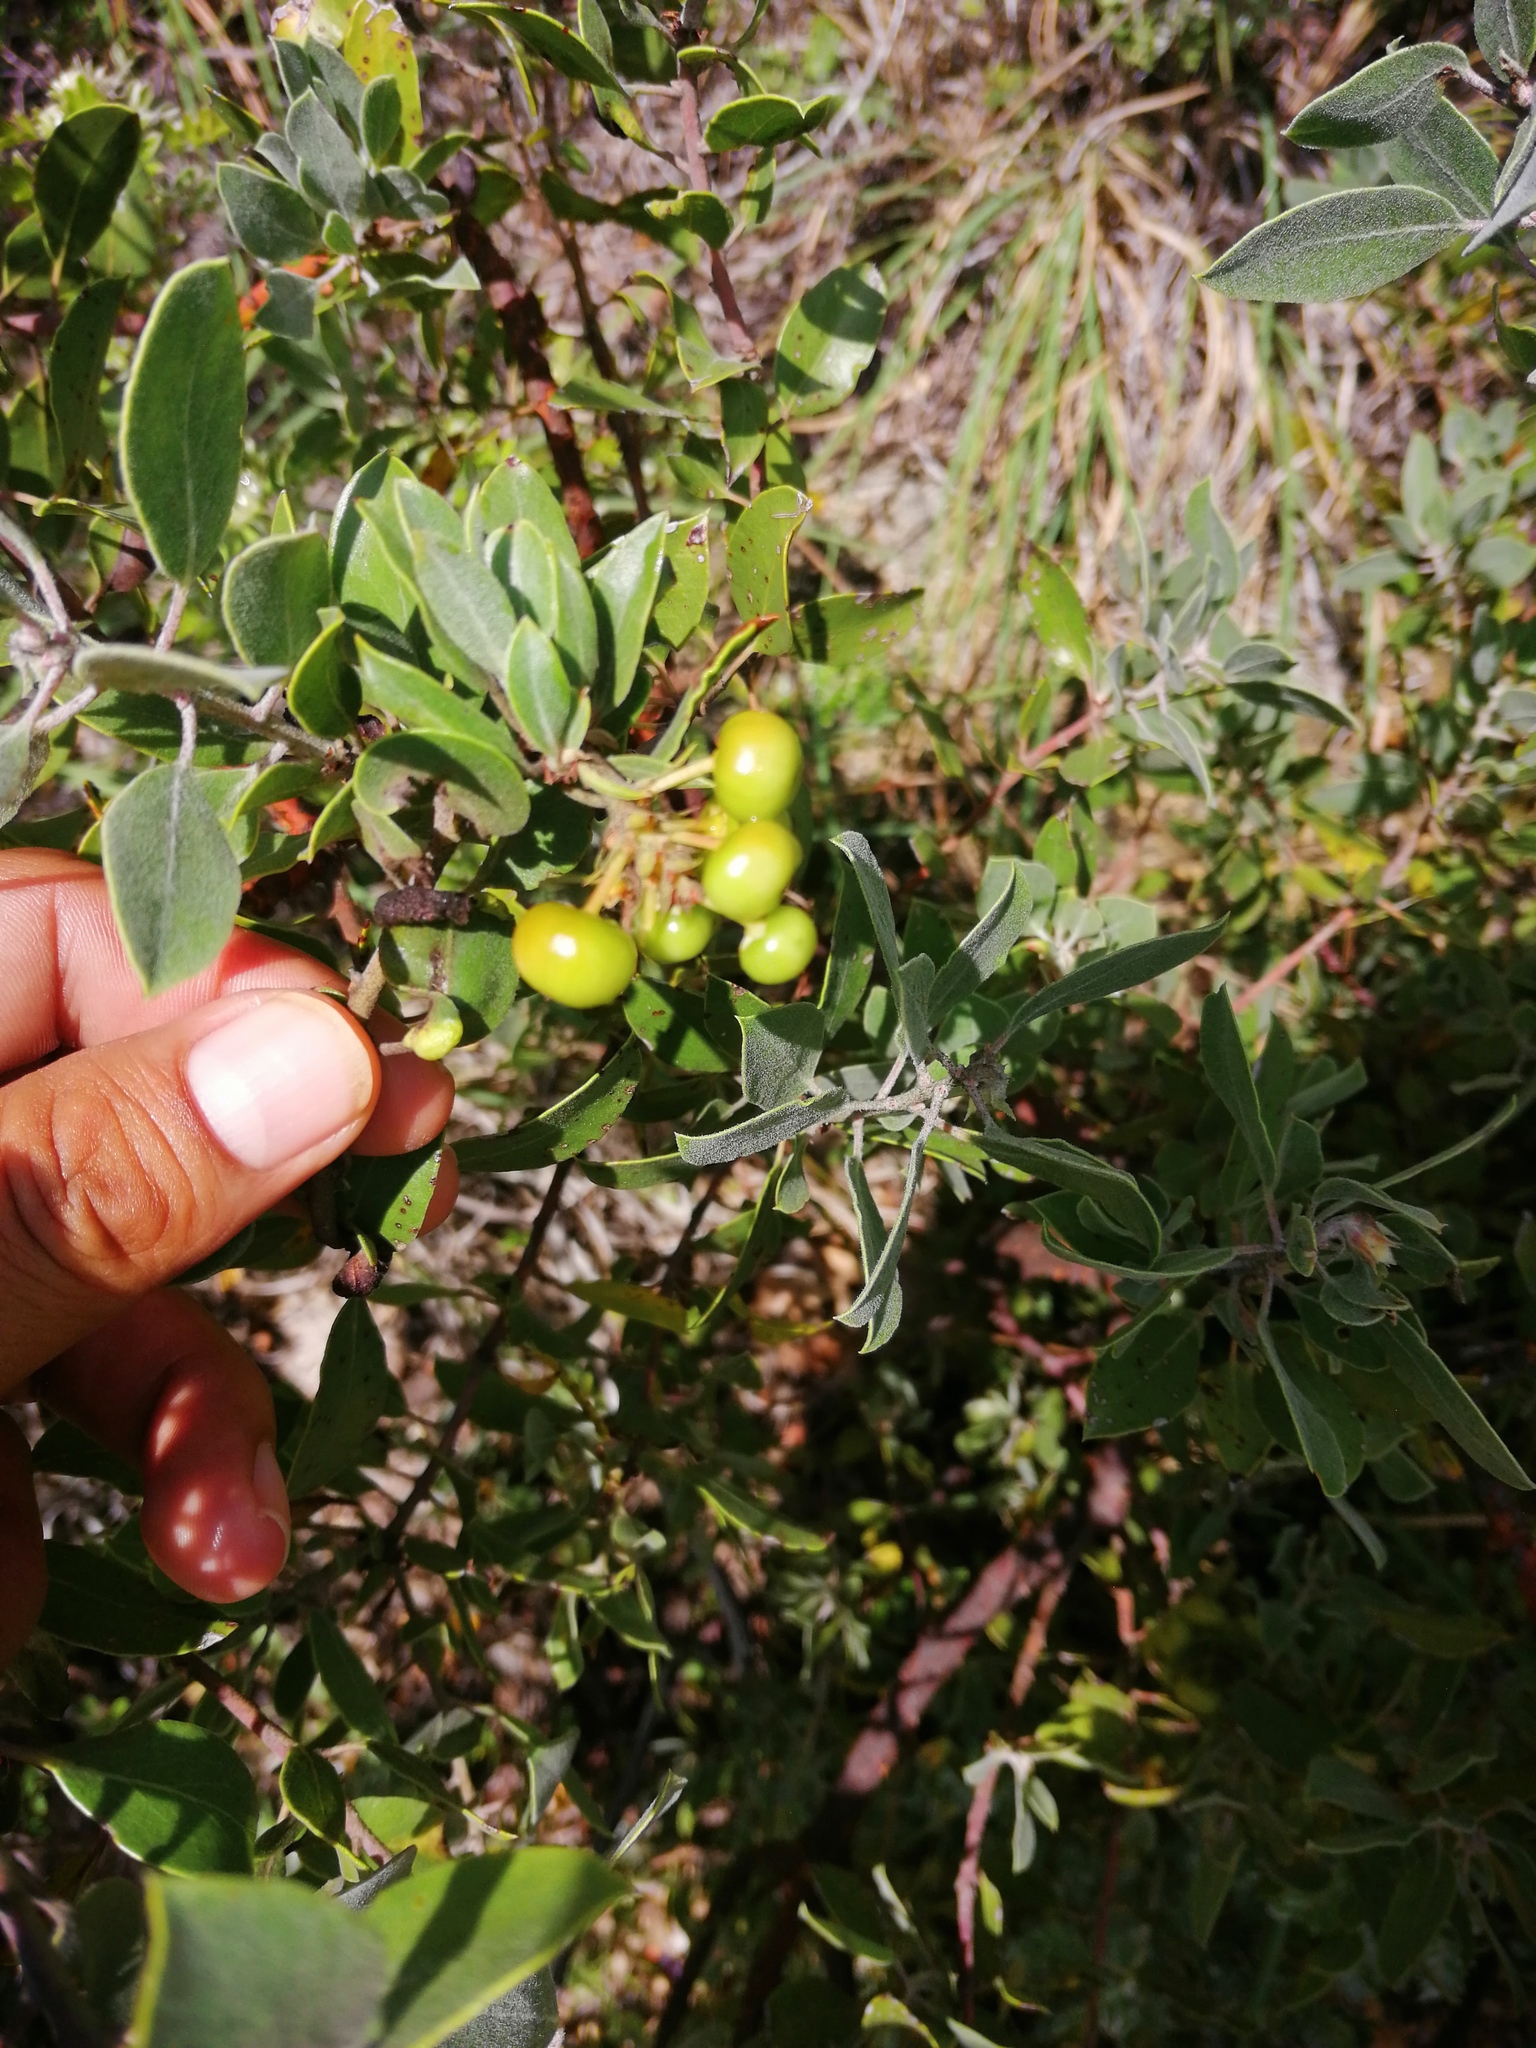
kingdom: Plantae
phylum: Tracheophyta
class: Magnoliopsida
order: Ericales
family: Ericaceae
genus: Arctostaphylos
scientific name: Arctostaphylos pungens
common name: Mexican manzanita
